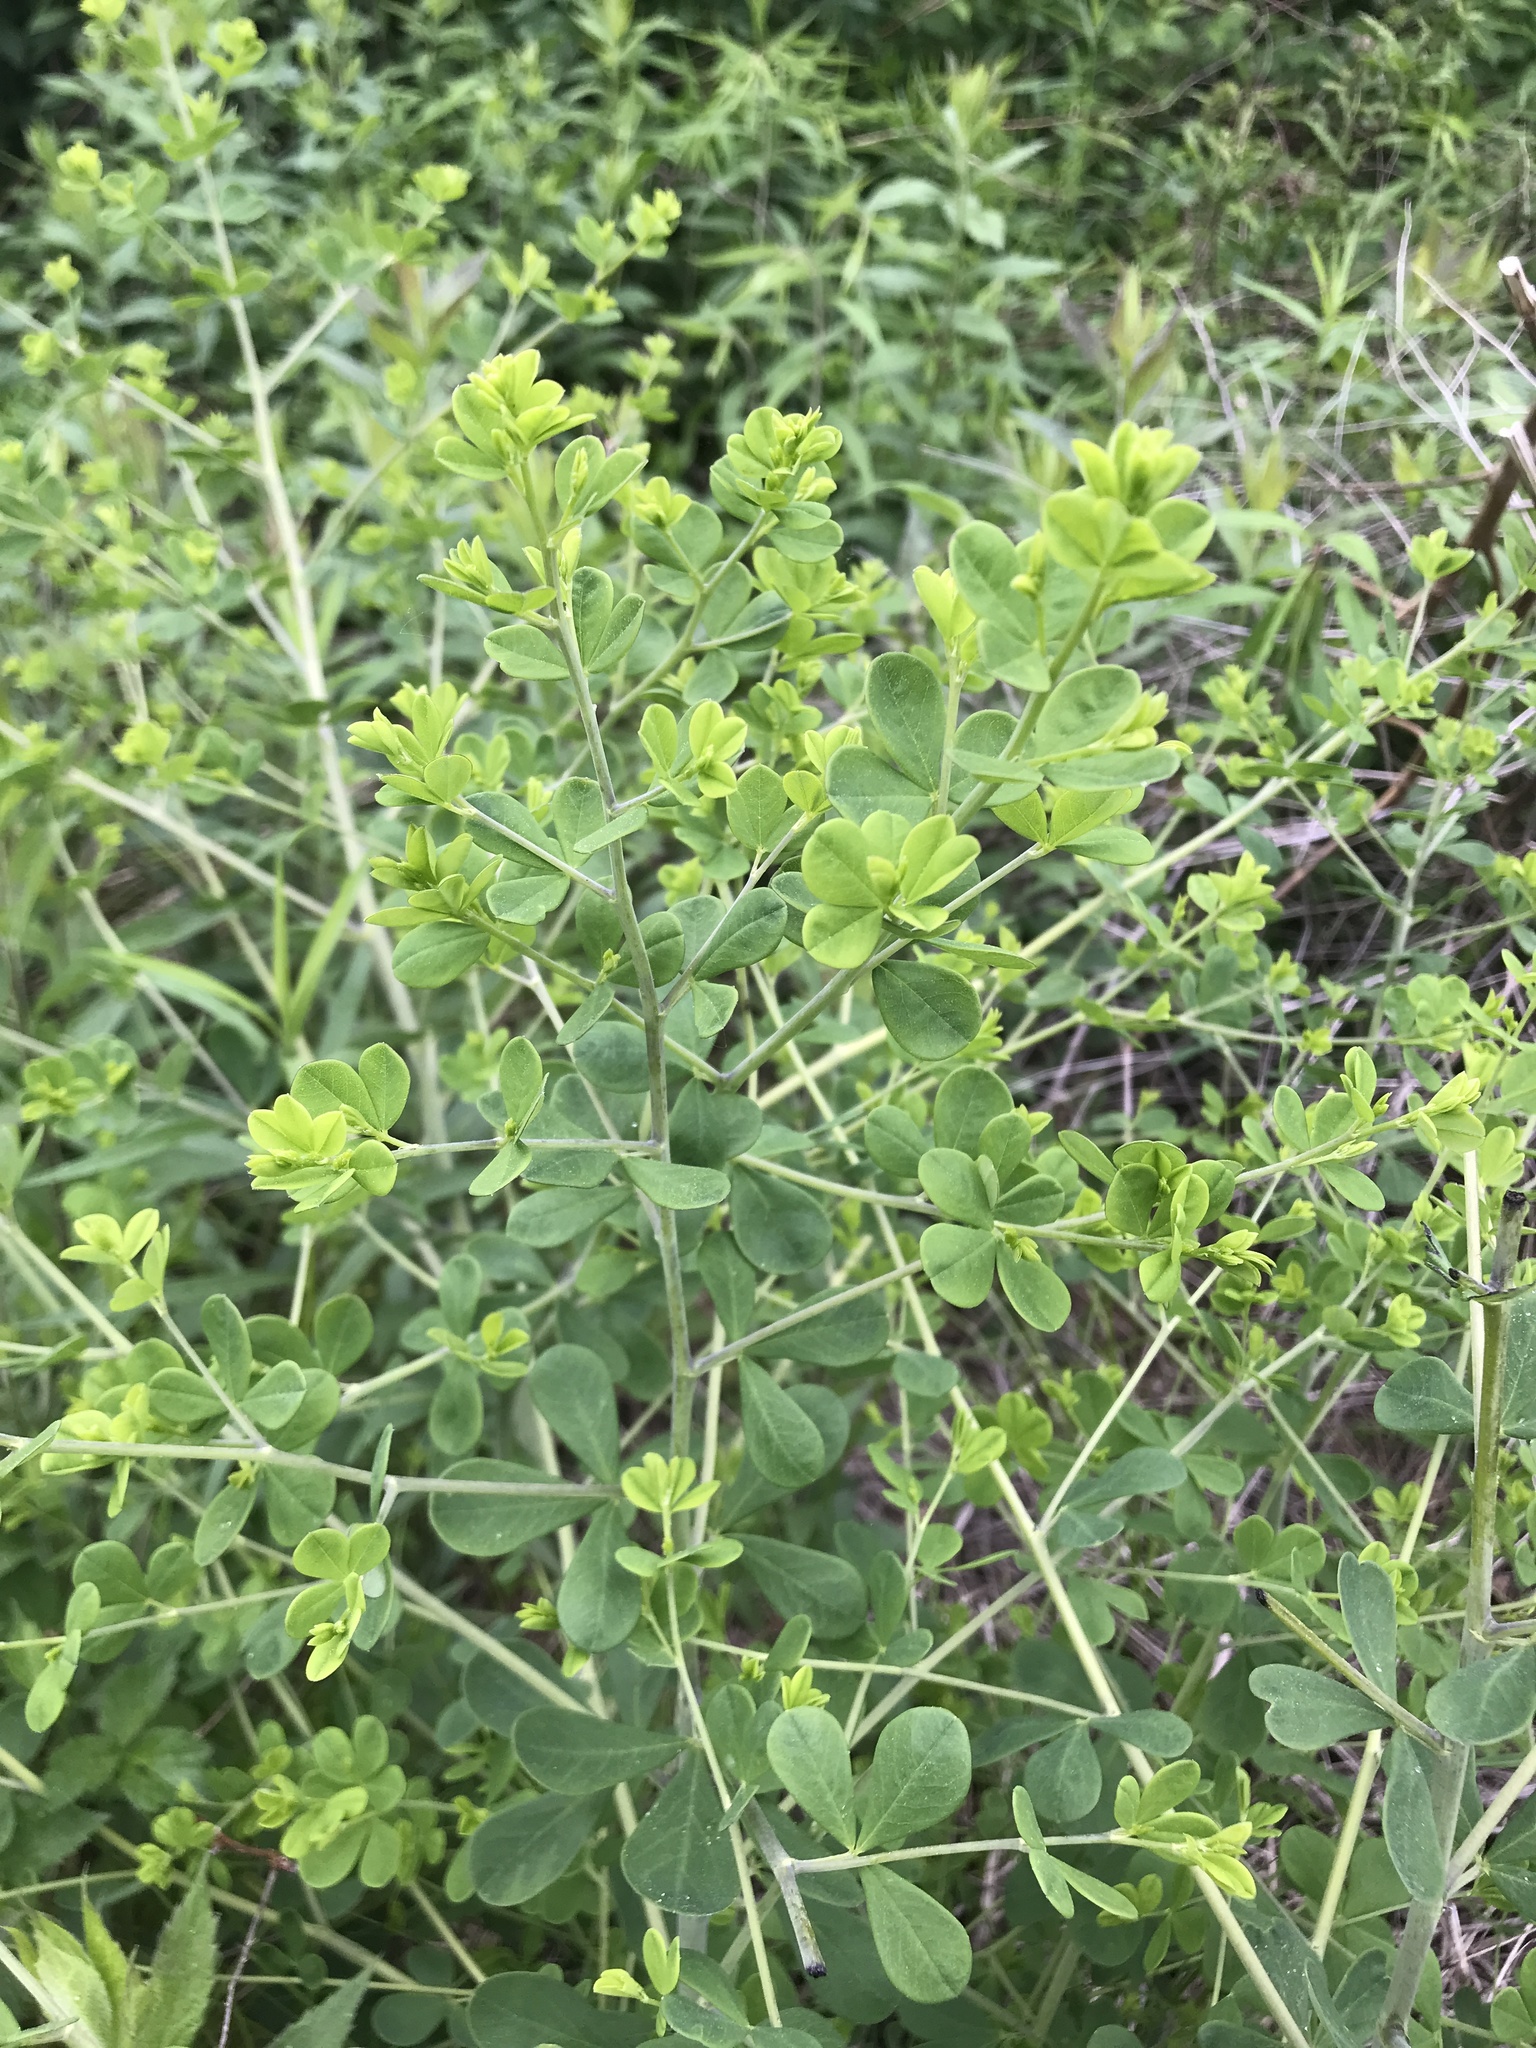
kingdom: Plantae
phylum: Tracheophyta
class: Magnoliopsida
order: Fabales
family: Fabaceae
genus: Baptisia
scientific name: Baptisia tinctoria
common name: Wild indigo
